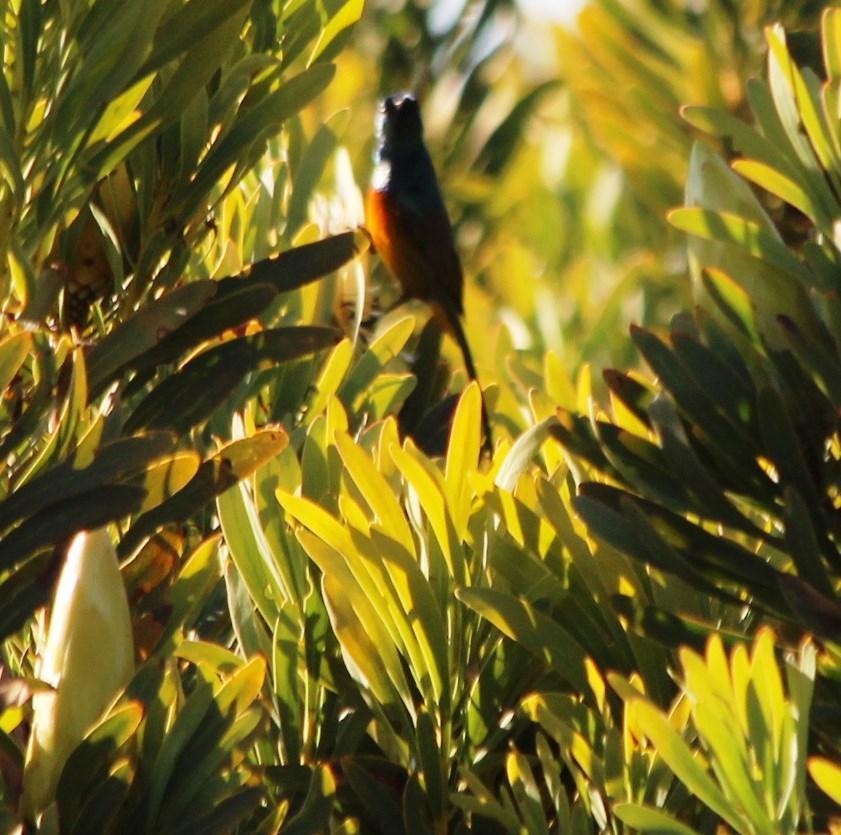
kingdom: Animalia
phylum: Chordata
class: Aves
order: Passeriformes
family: Nectariniidae
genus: Anthobaphes
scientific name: Anthobaphes violacea
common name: Orange-breasted sunbird
